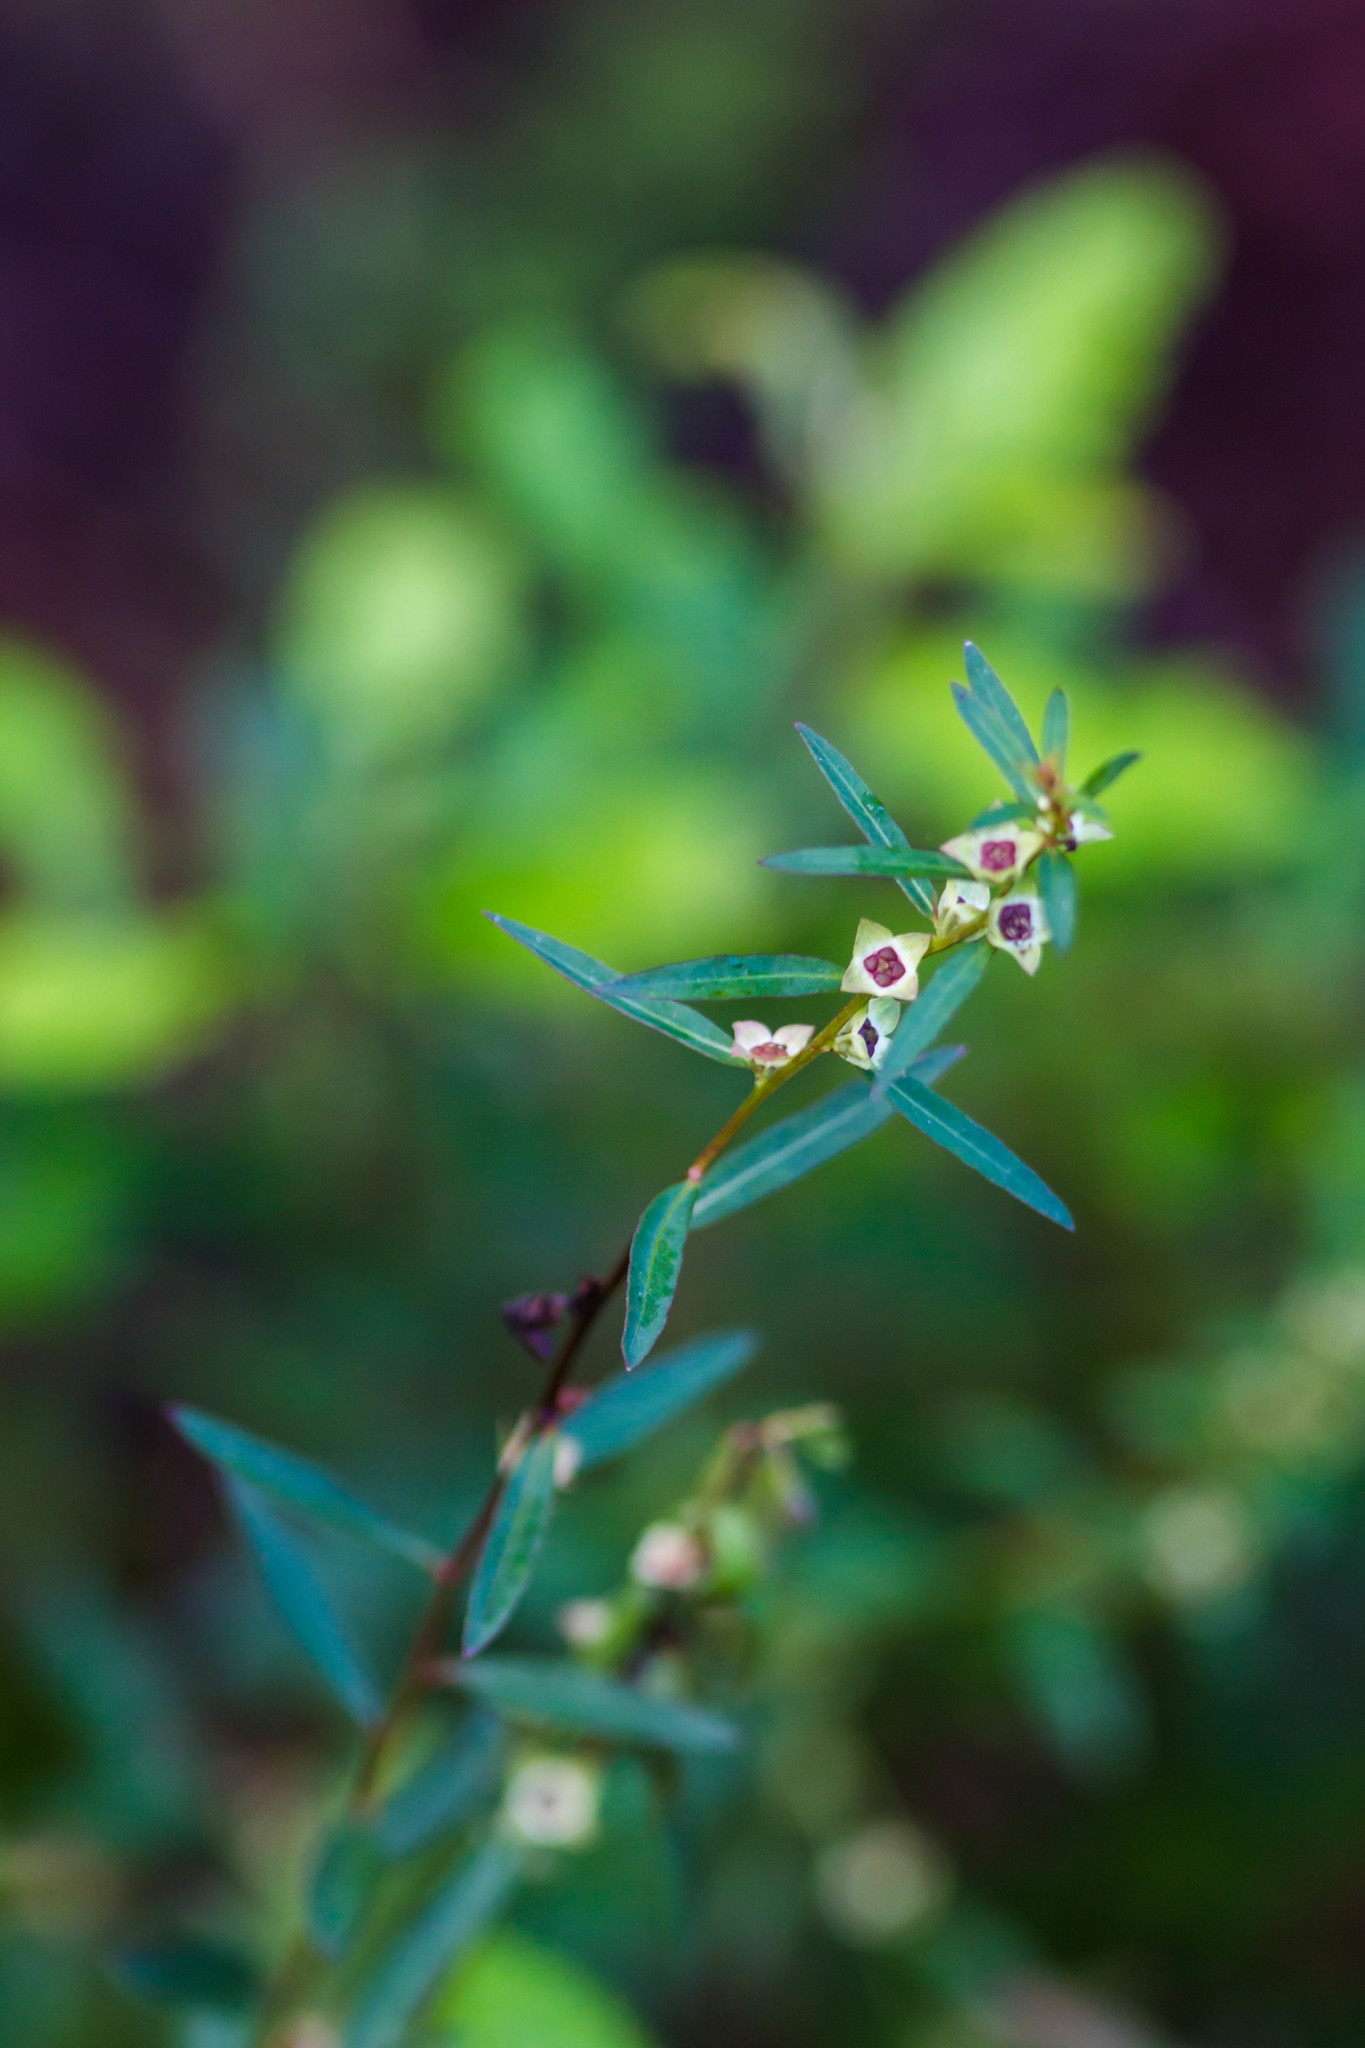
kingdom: Plantae
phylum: Tracheophyta
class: Magnoliopsida
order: Myrtales
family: Onagraceae
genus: Ludwigia
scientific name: Ludwigia alata
